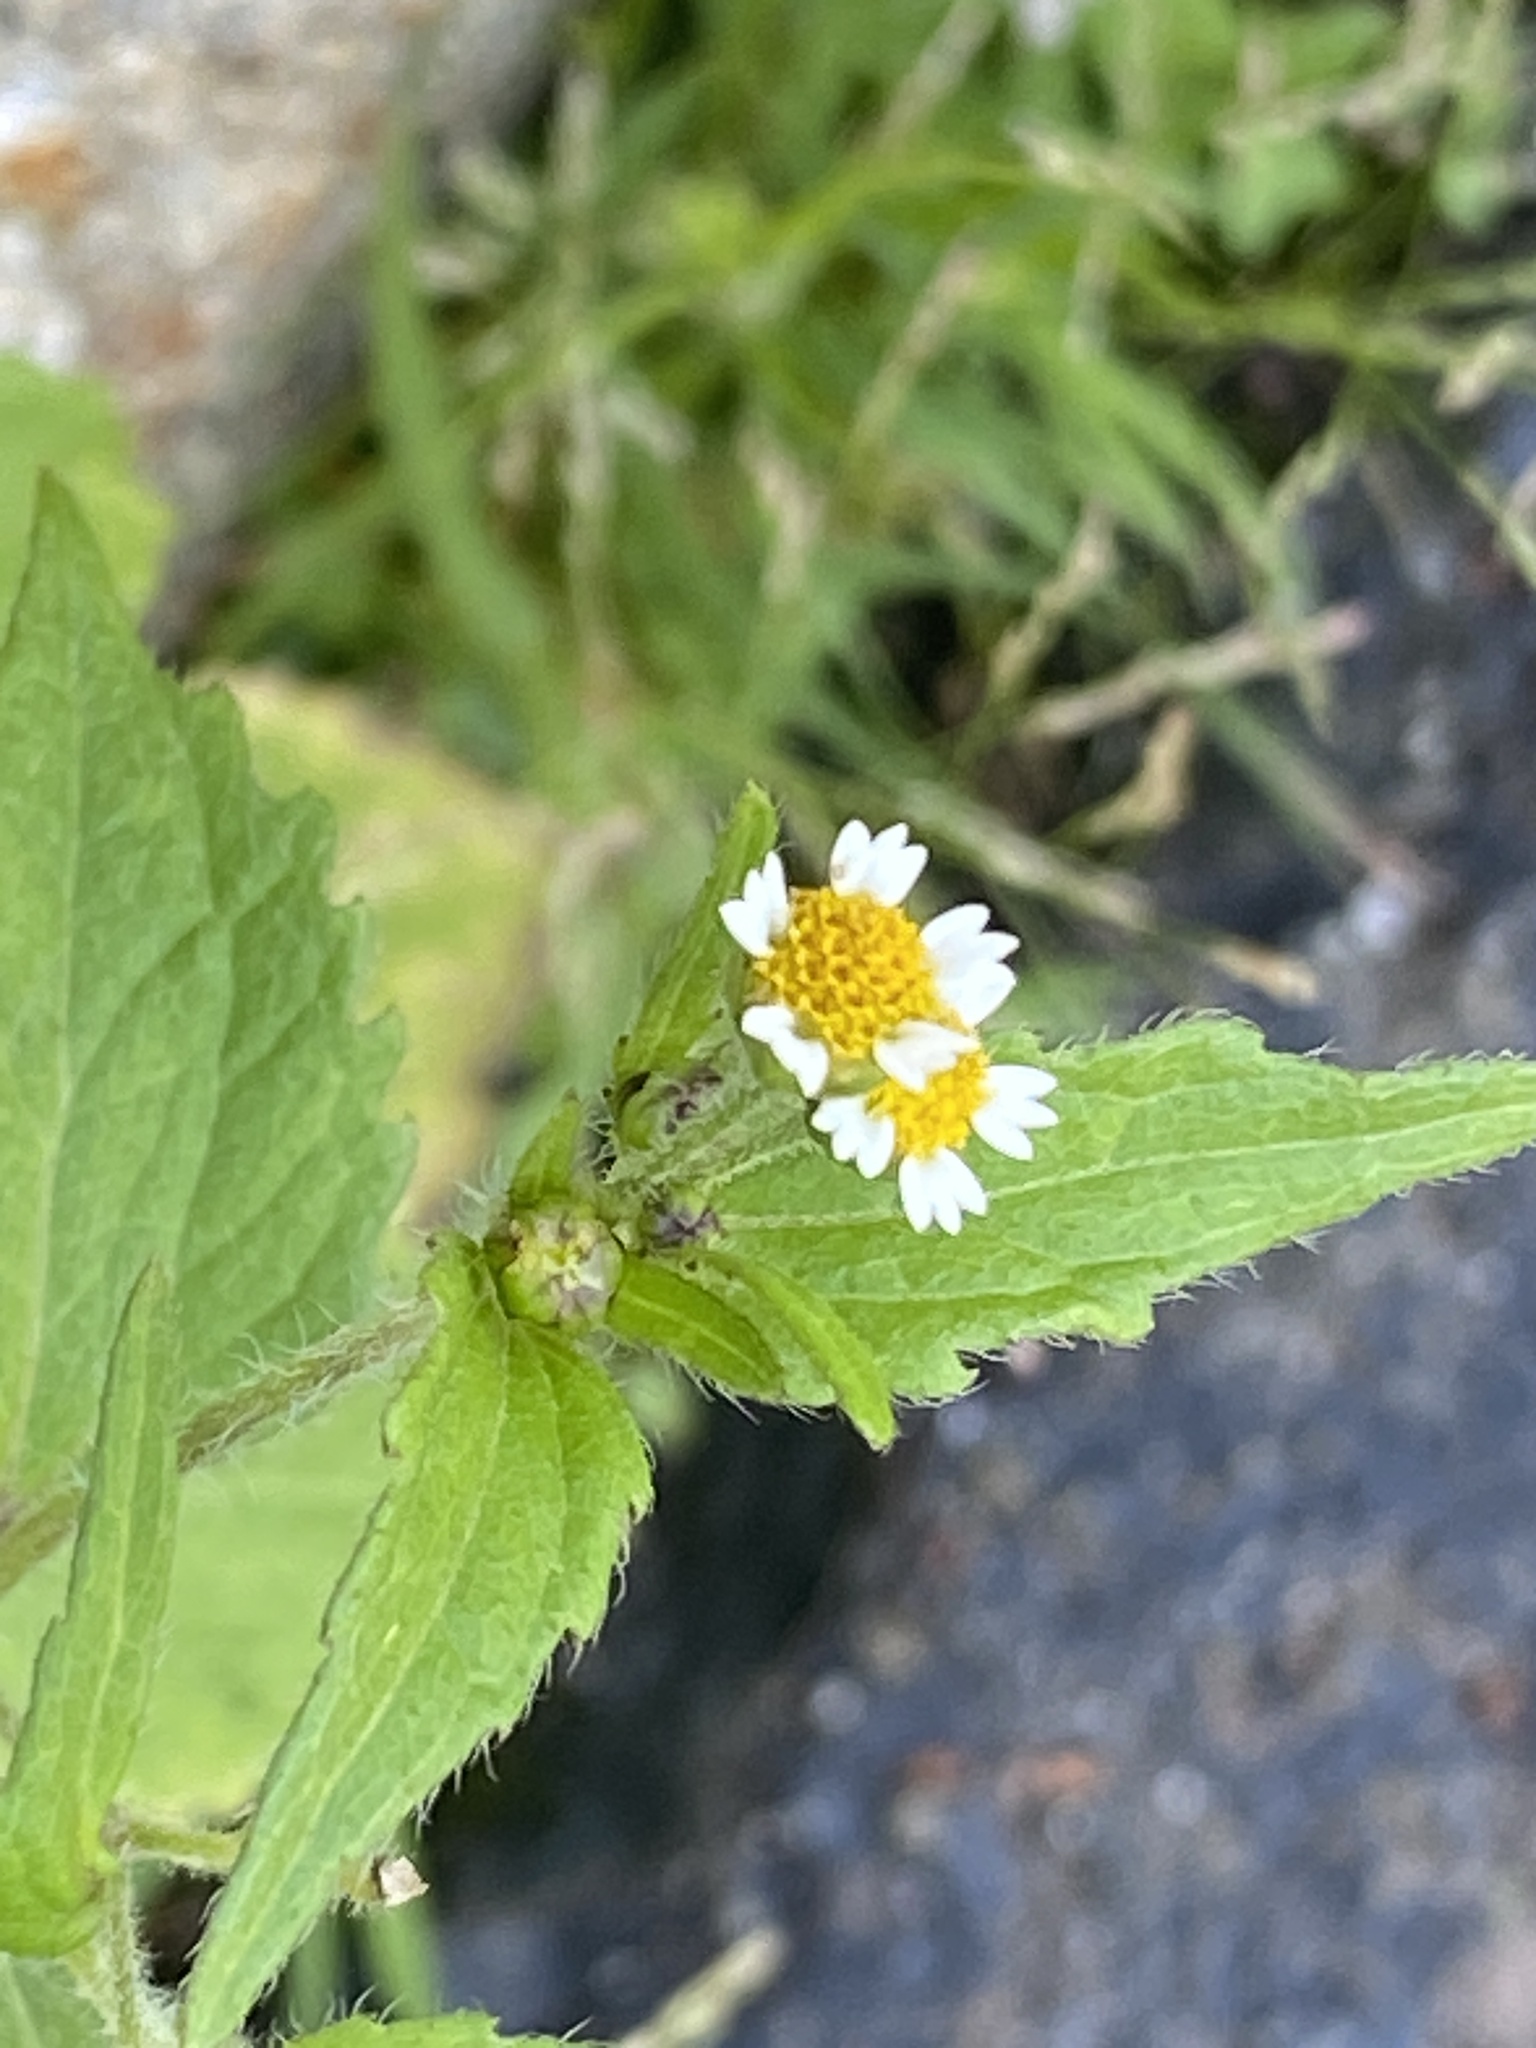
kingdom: Plantae
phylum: Tracheophyta
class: Magnoliopsida
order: Asterales
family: Asteraceae
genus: Galinsoga
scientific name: Galinsoga quadriradiata
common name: Shaggy soldier
